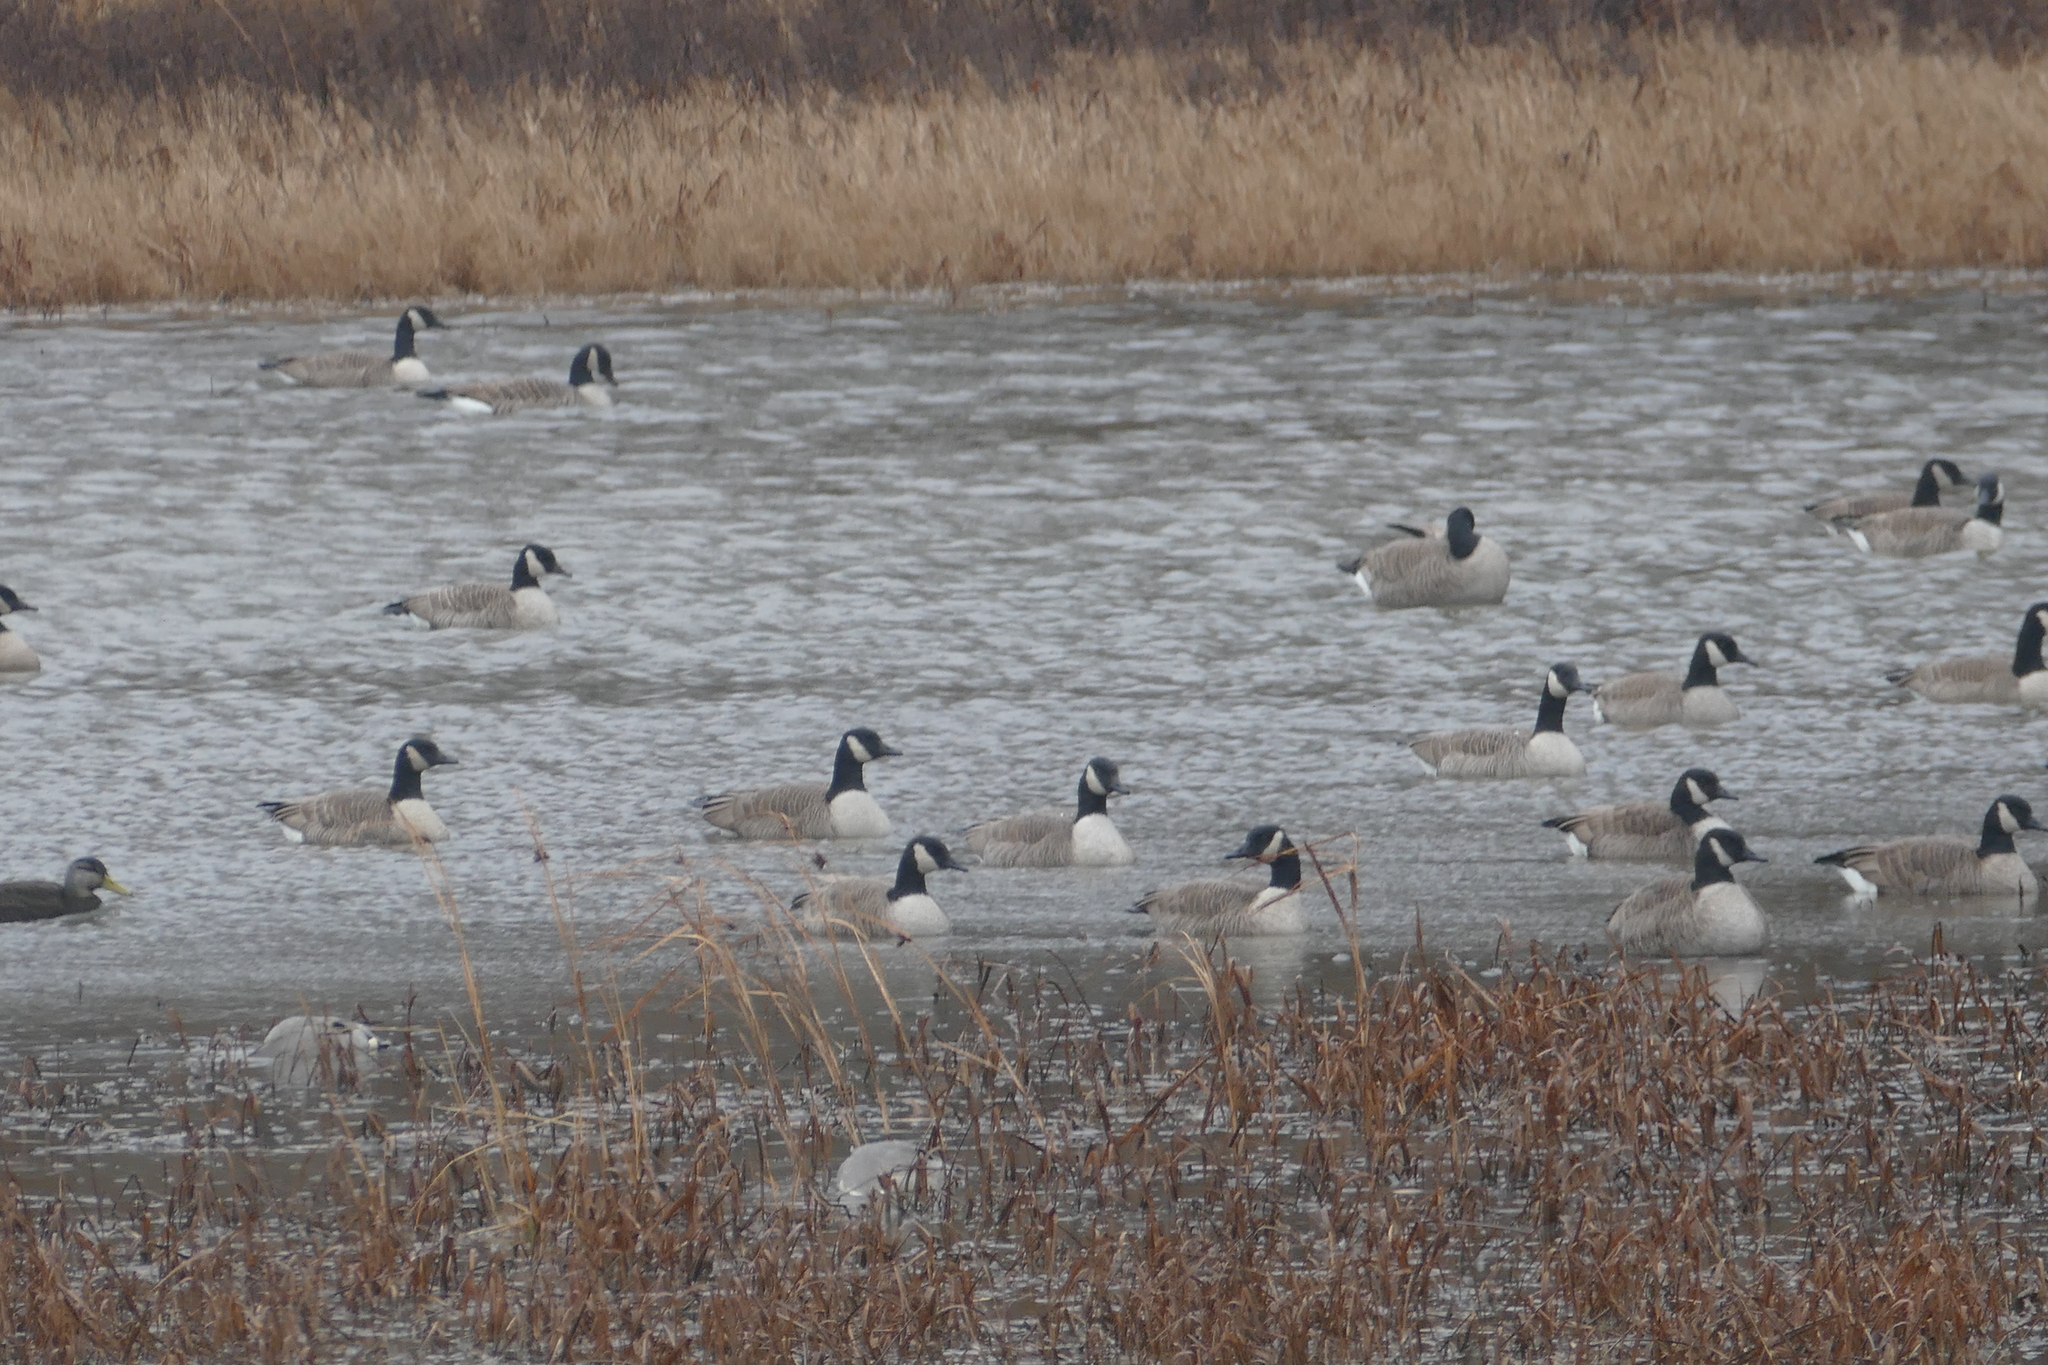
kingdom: Animalia
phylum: Chordata
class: Aves
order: Anseriformes
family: Anatidae
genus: Branta
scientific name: Branta canadensis
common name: Canada goose
